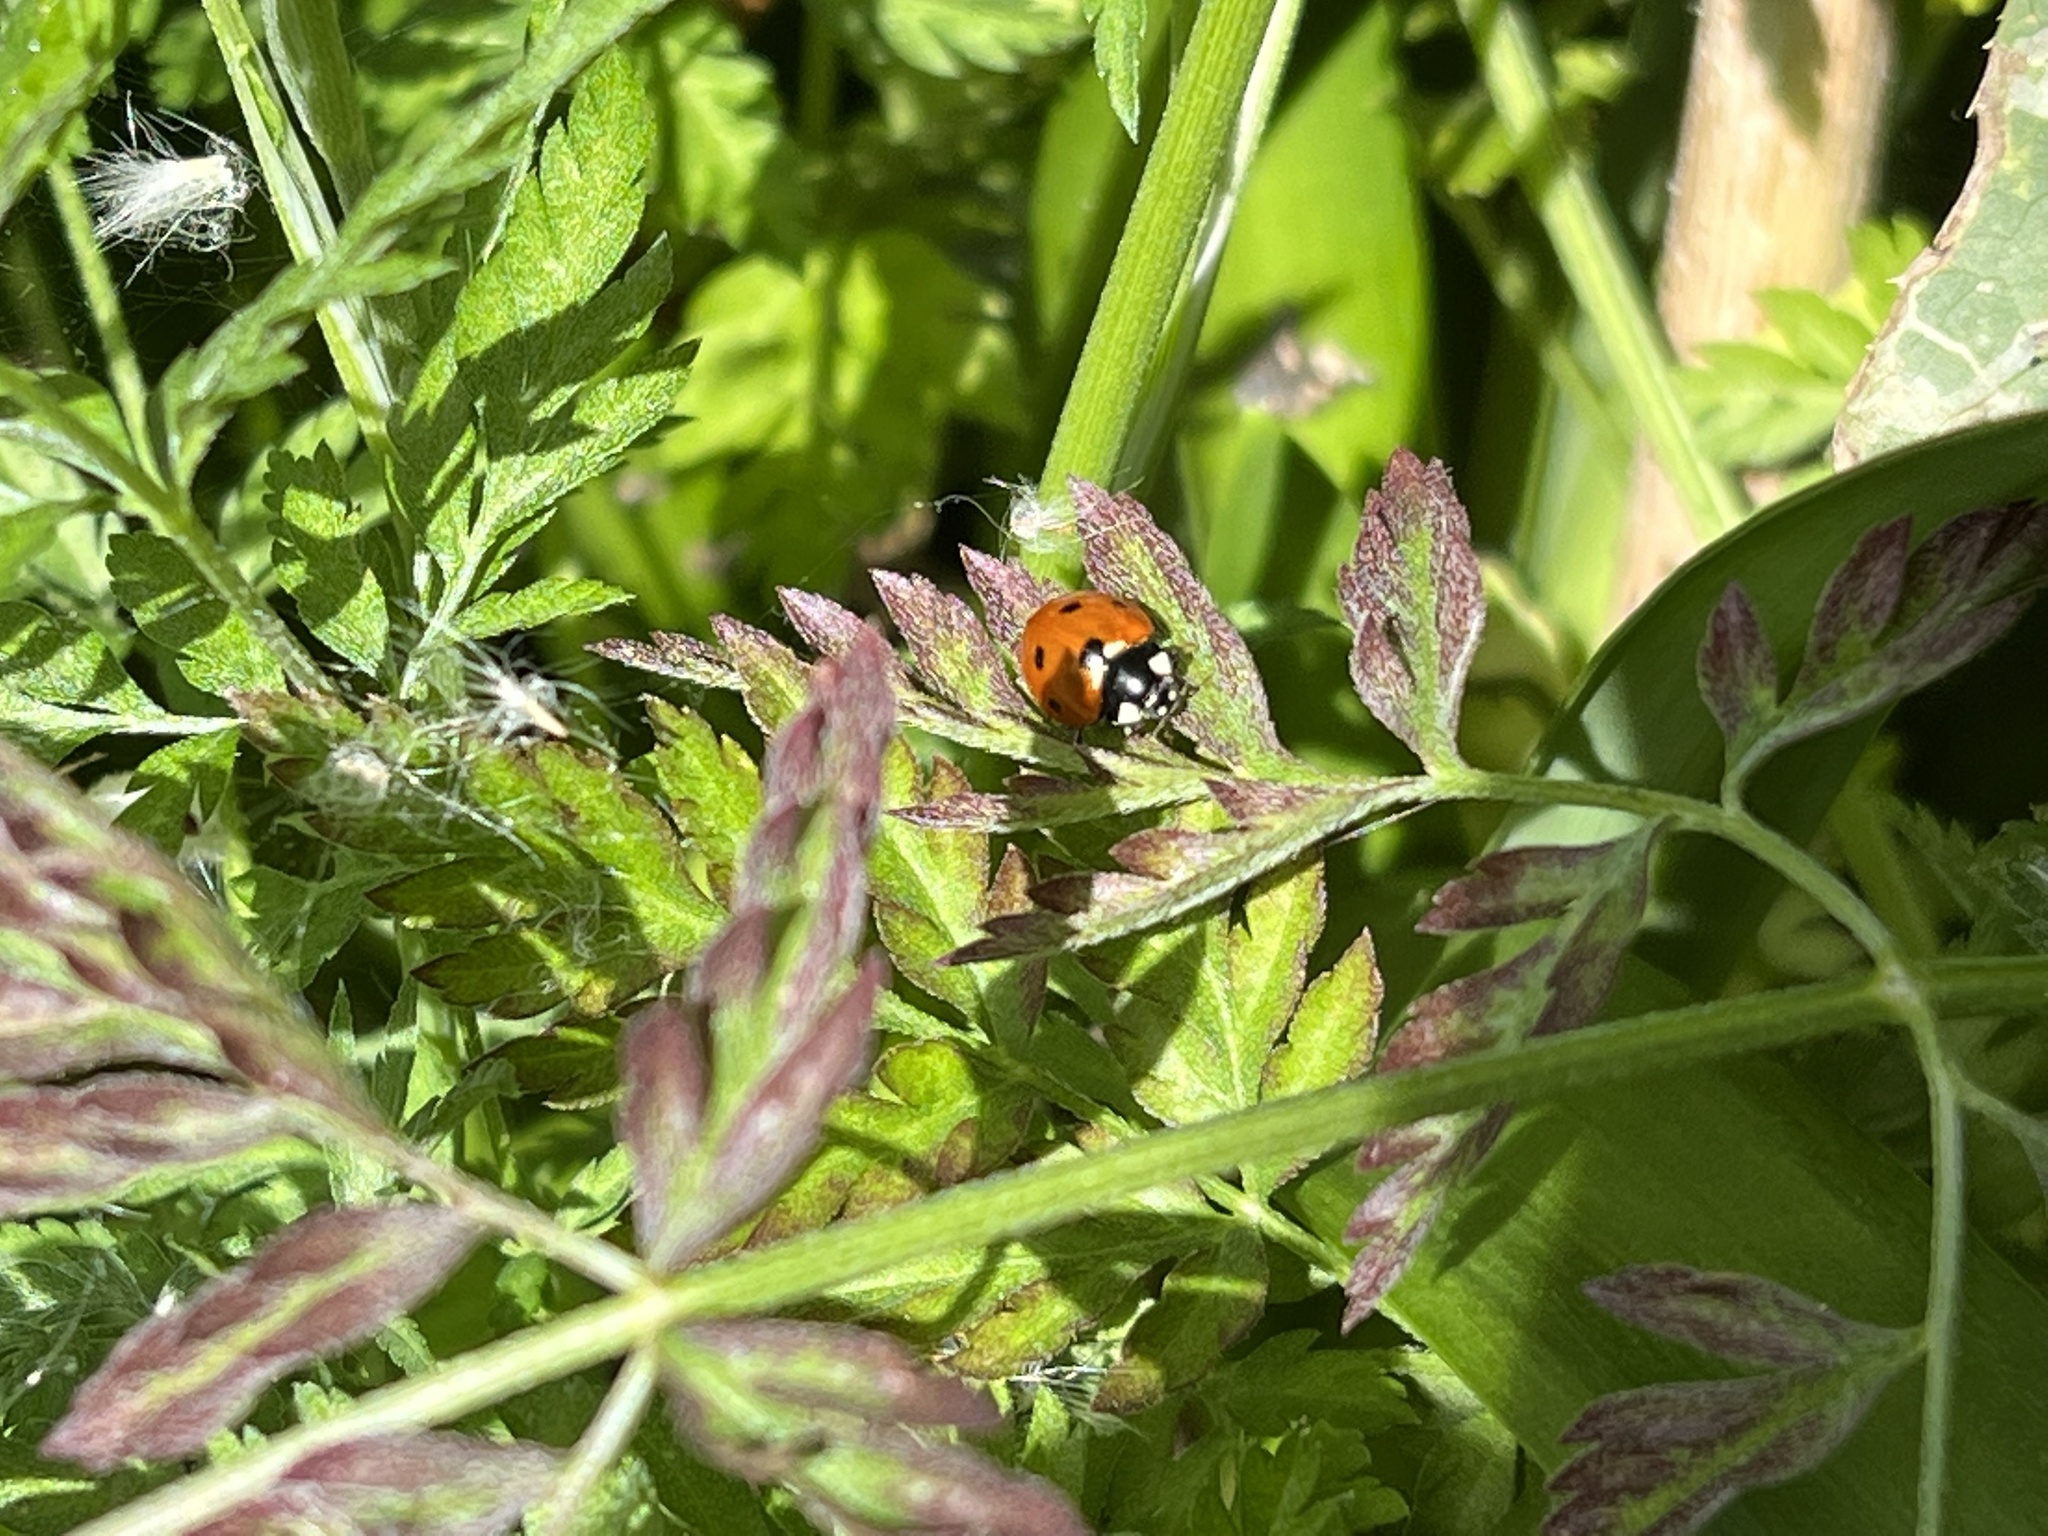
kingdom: Animalia
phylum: Arthropoda
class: Insecta
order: Coleoptera
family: Coccinellidae
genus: Coccinella
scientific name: Coccinella septempunctata
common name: Sevenspotted lady beetle
